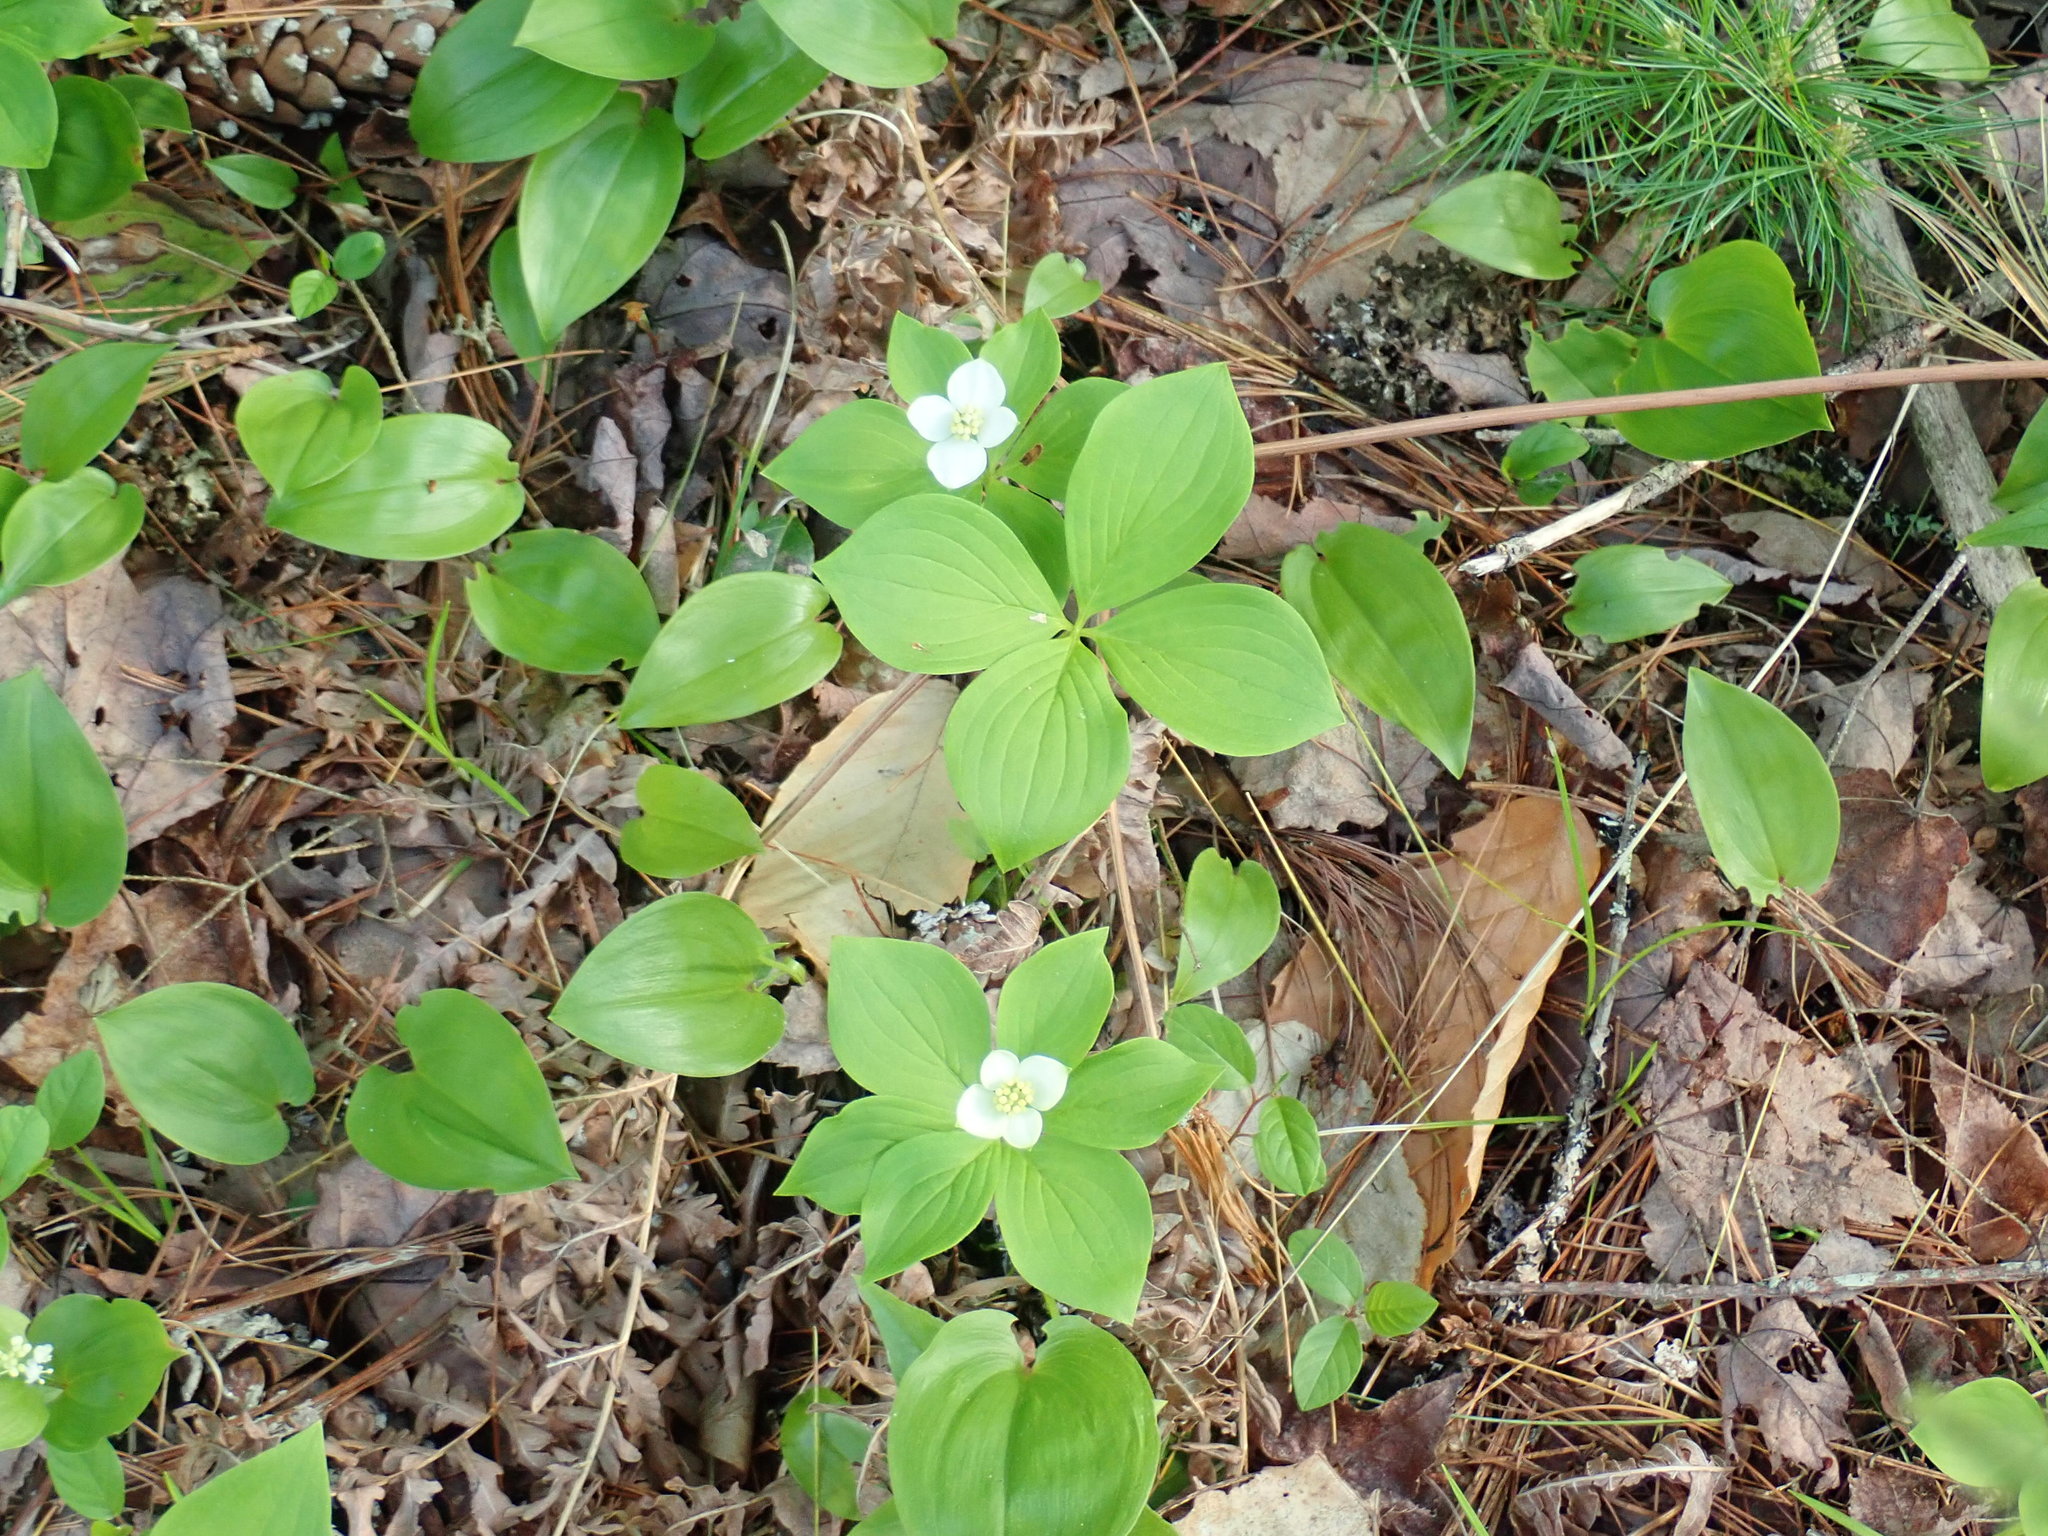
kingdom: Plantae
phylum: Tracheophyta
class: Magnoliopsida
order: Cornales
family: Cornaceae
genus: Cornus
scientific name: Cornus canadensis
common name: Creeping dogwood
